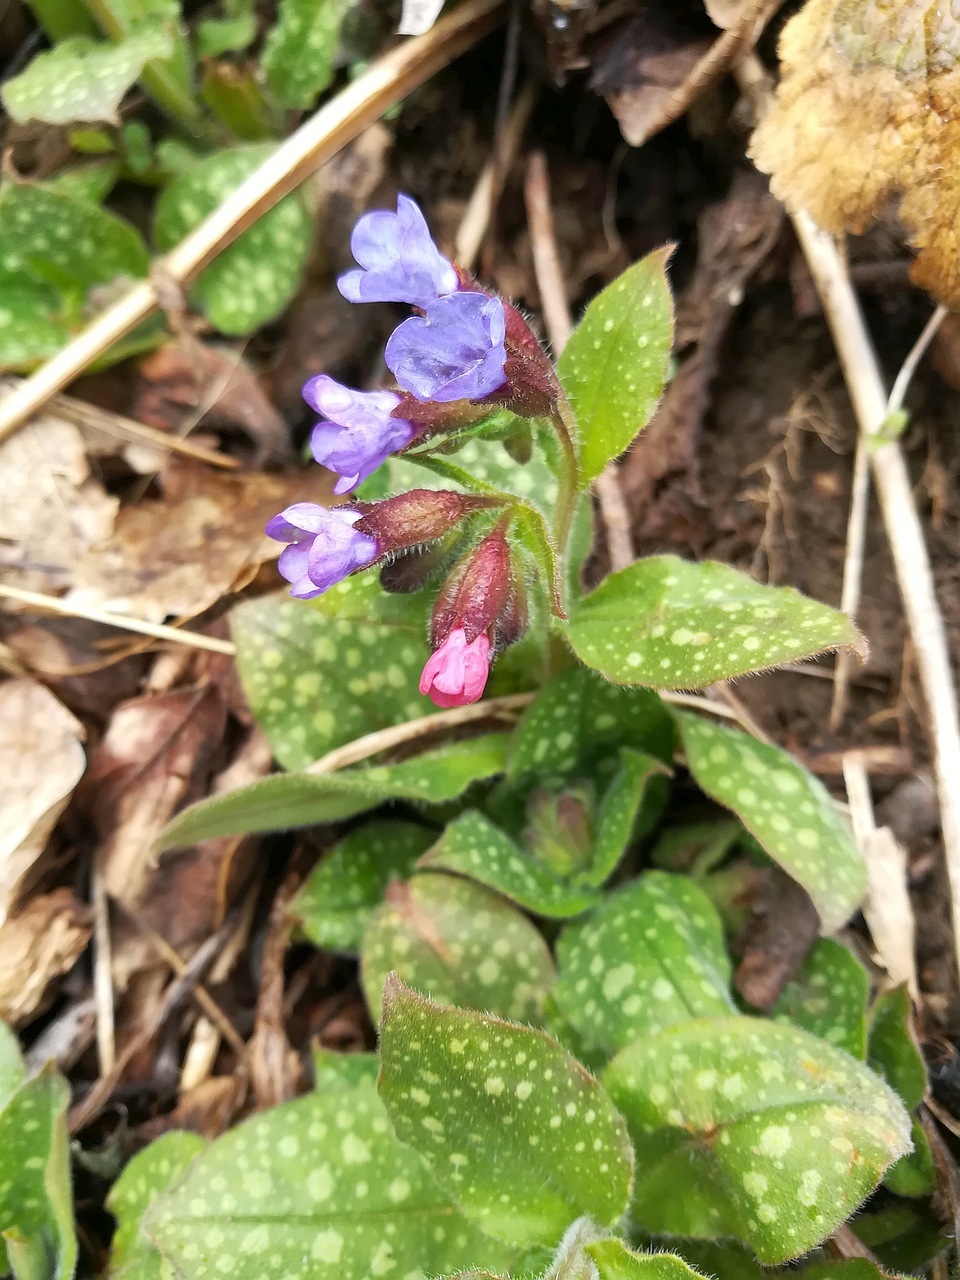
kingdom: Plantae
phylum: Tracheophyta
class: Magnoliopsida
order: Boraginales
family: Boraginaceae
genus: Pulmonaria
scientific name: Pulmonaria officinalis
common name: Lungwort
